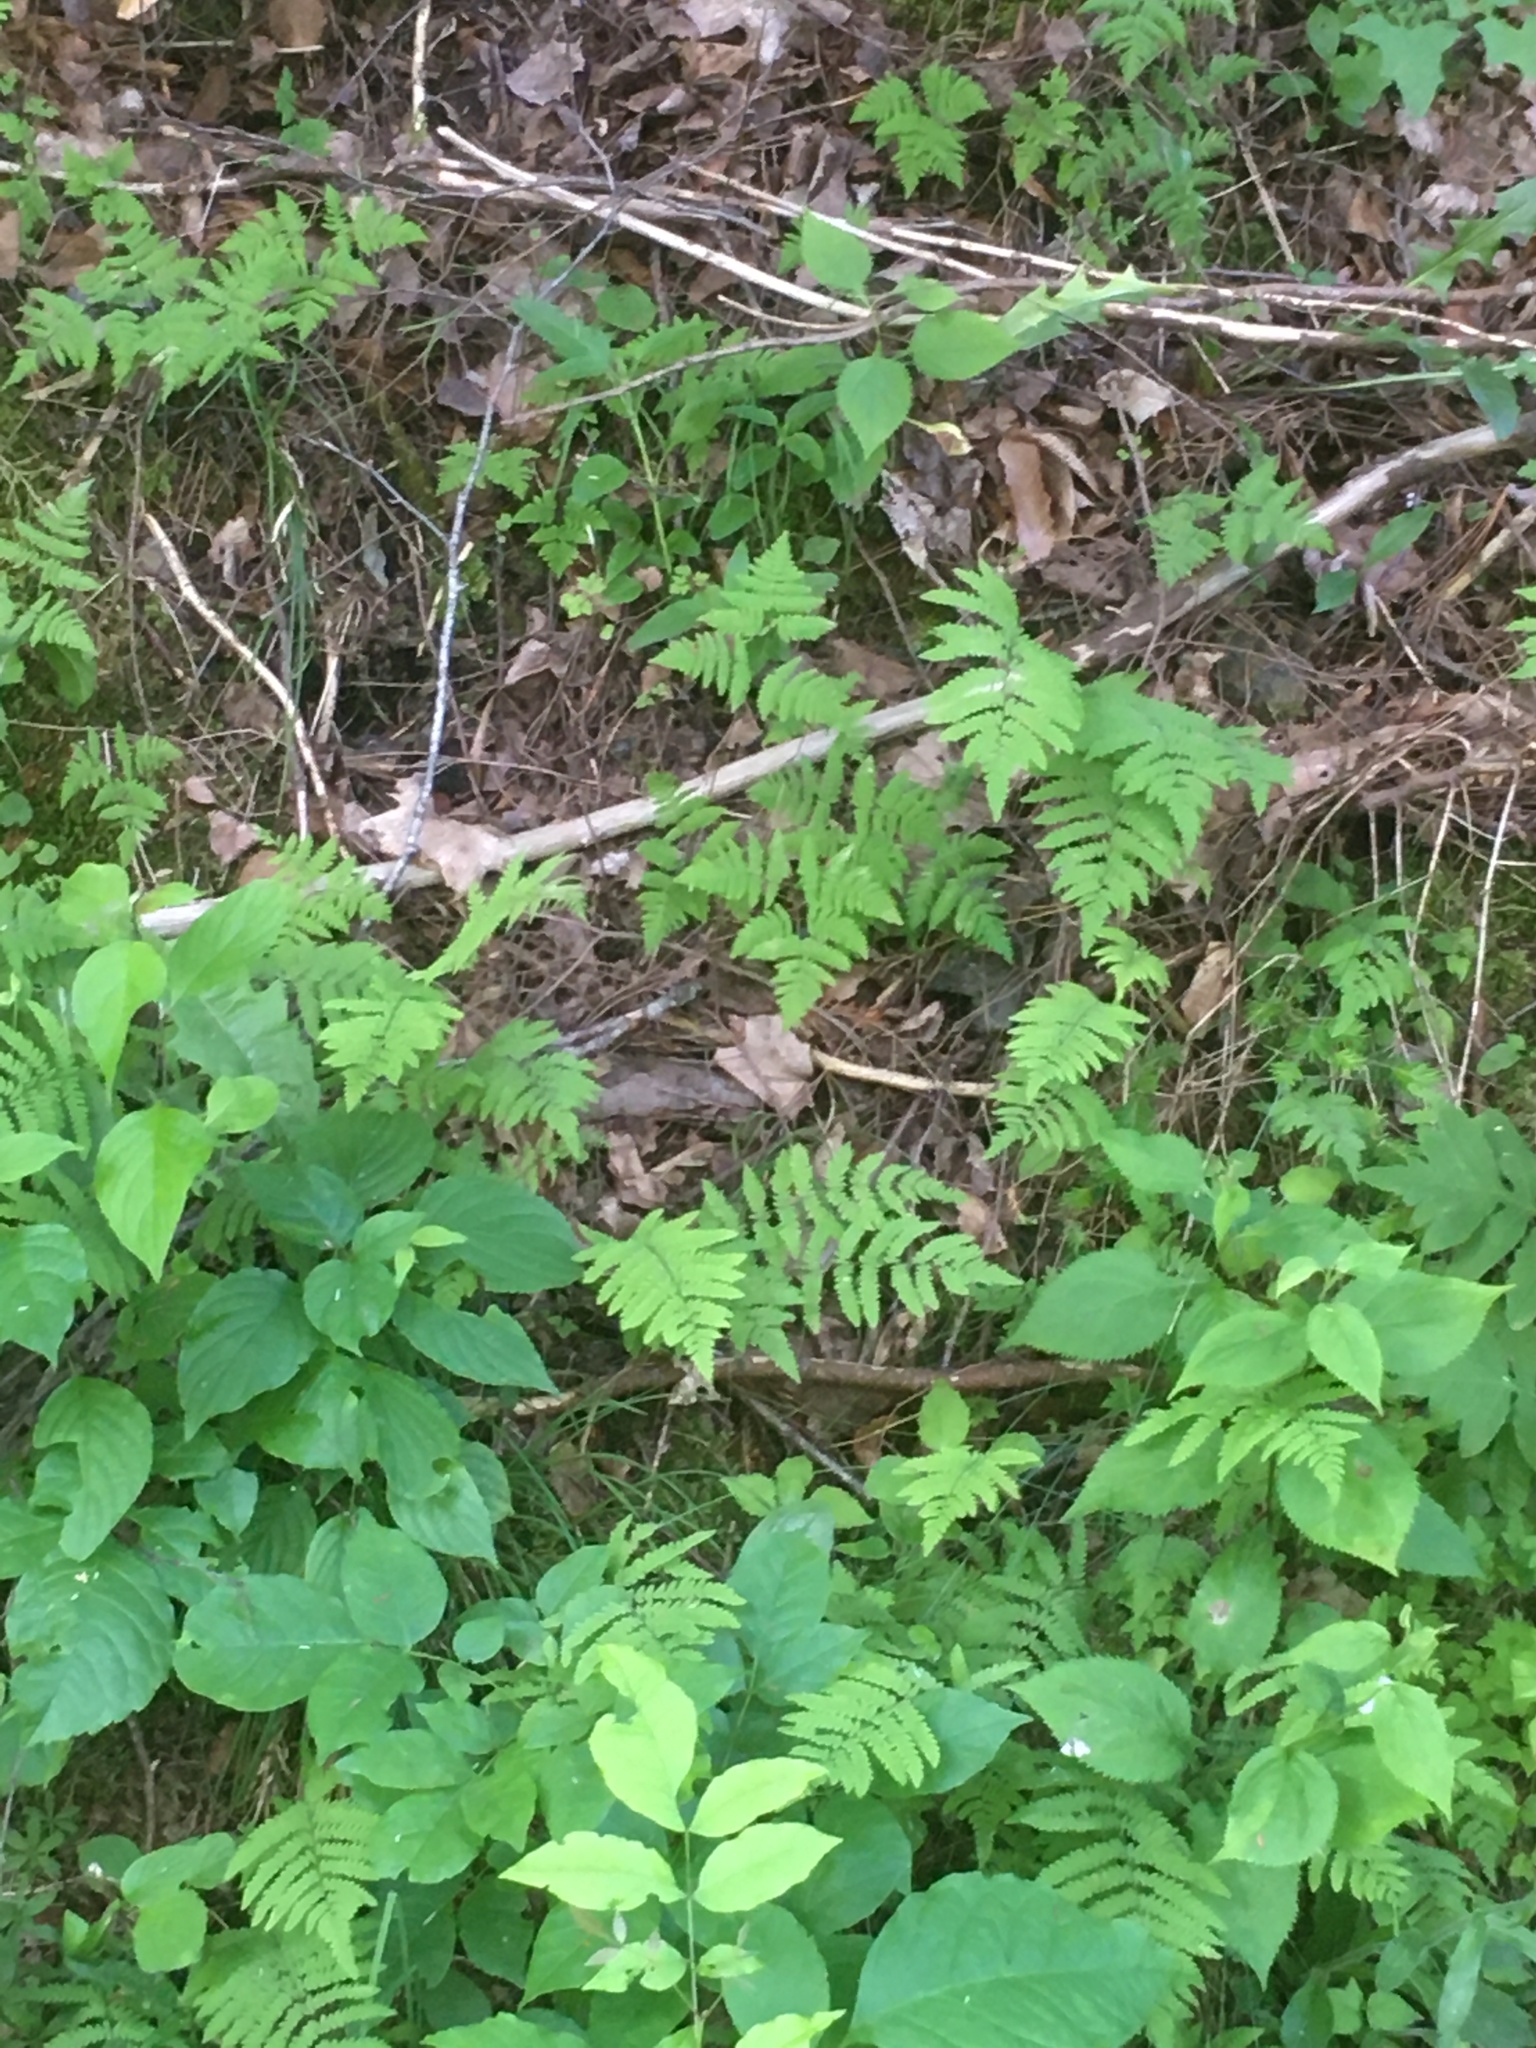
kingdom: Plantae
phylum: Tracheophyta
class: Polypodiopsida
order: Polypodiales
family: Cystopteridaceae
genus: Gymnocarpium
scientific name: Gymnocarpium dryopteris
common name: Oak fern
